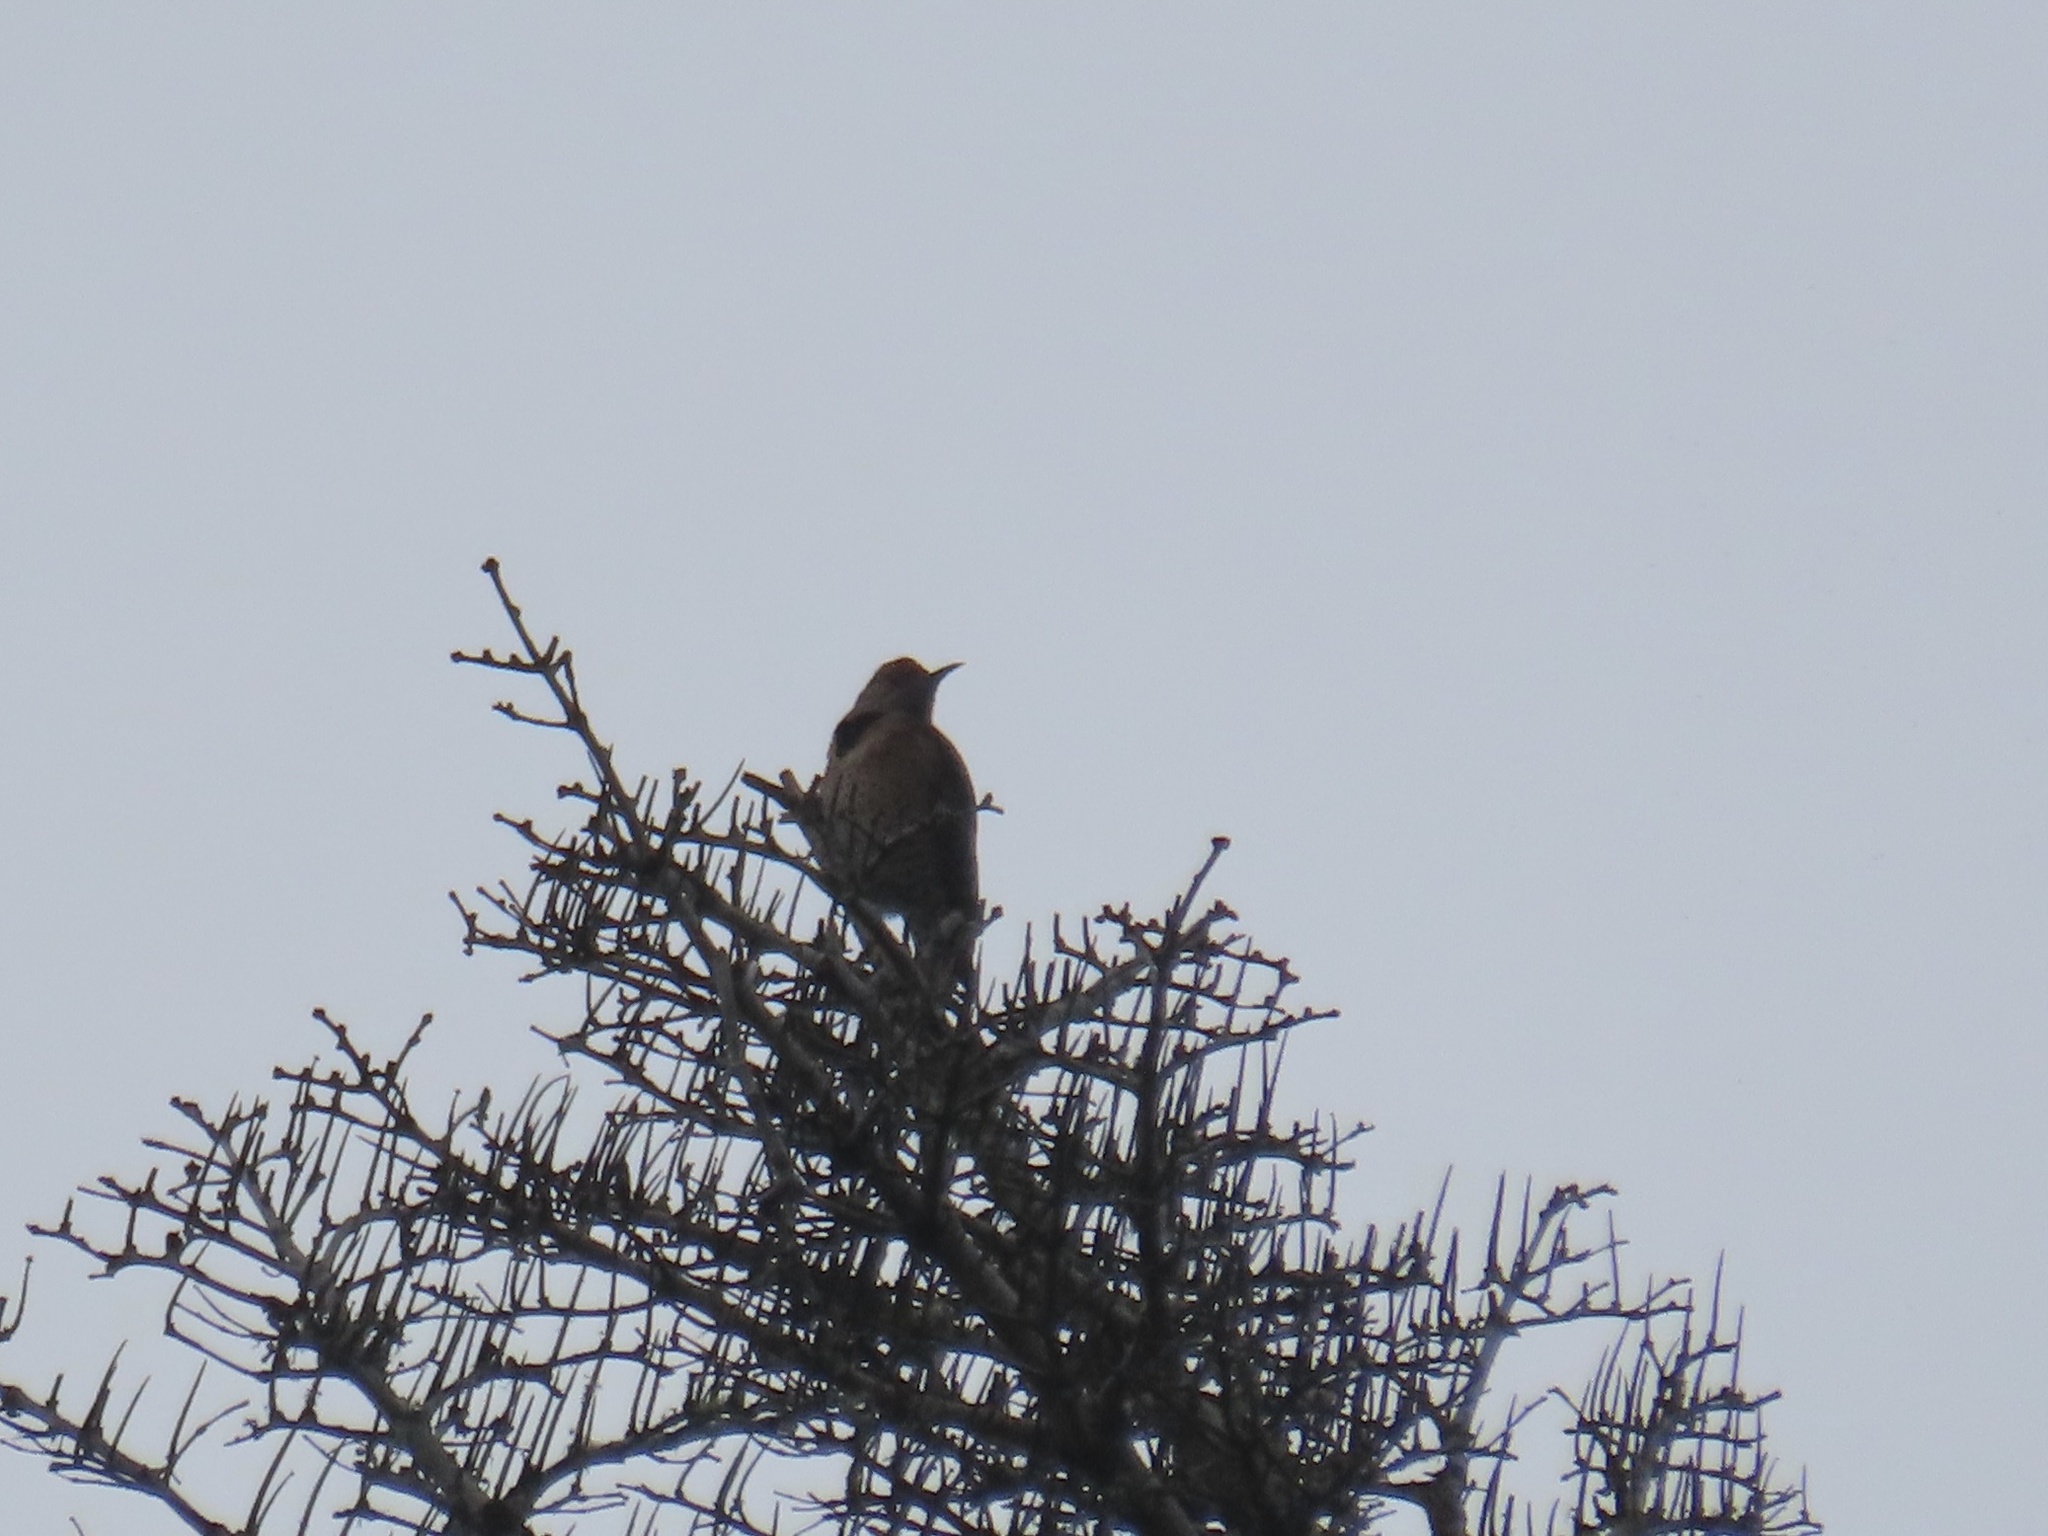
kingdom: Animalia
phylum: Chordata
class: Aves
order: Piciformes
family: Picidae
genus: Colaptes
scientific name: Colaptes auratus
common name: Northern flicker
